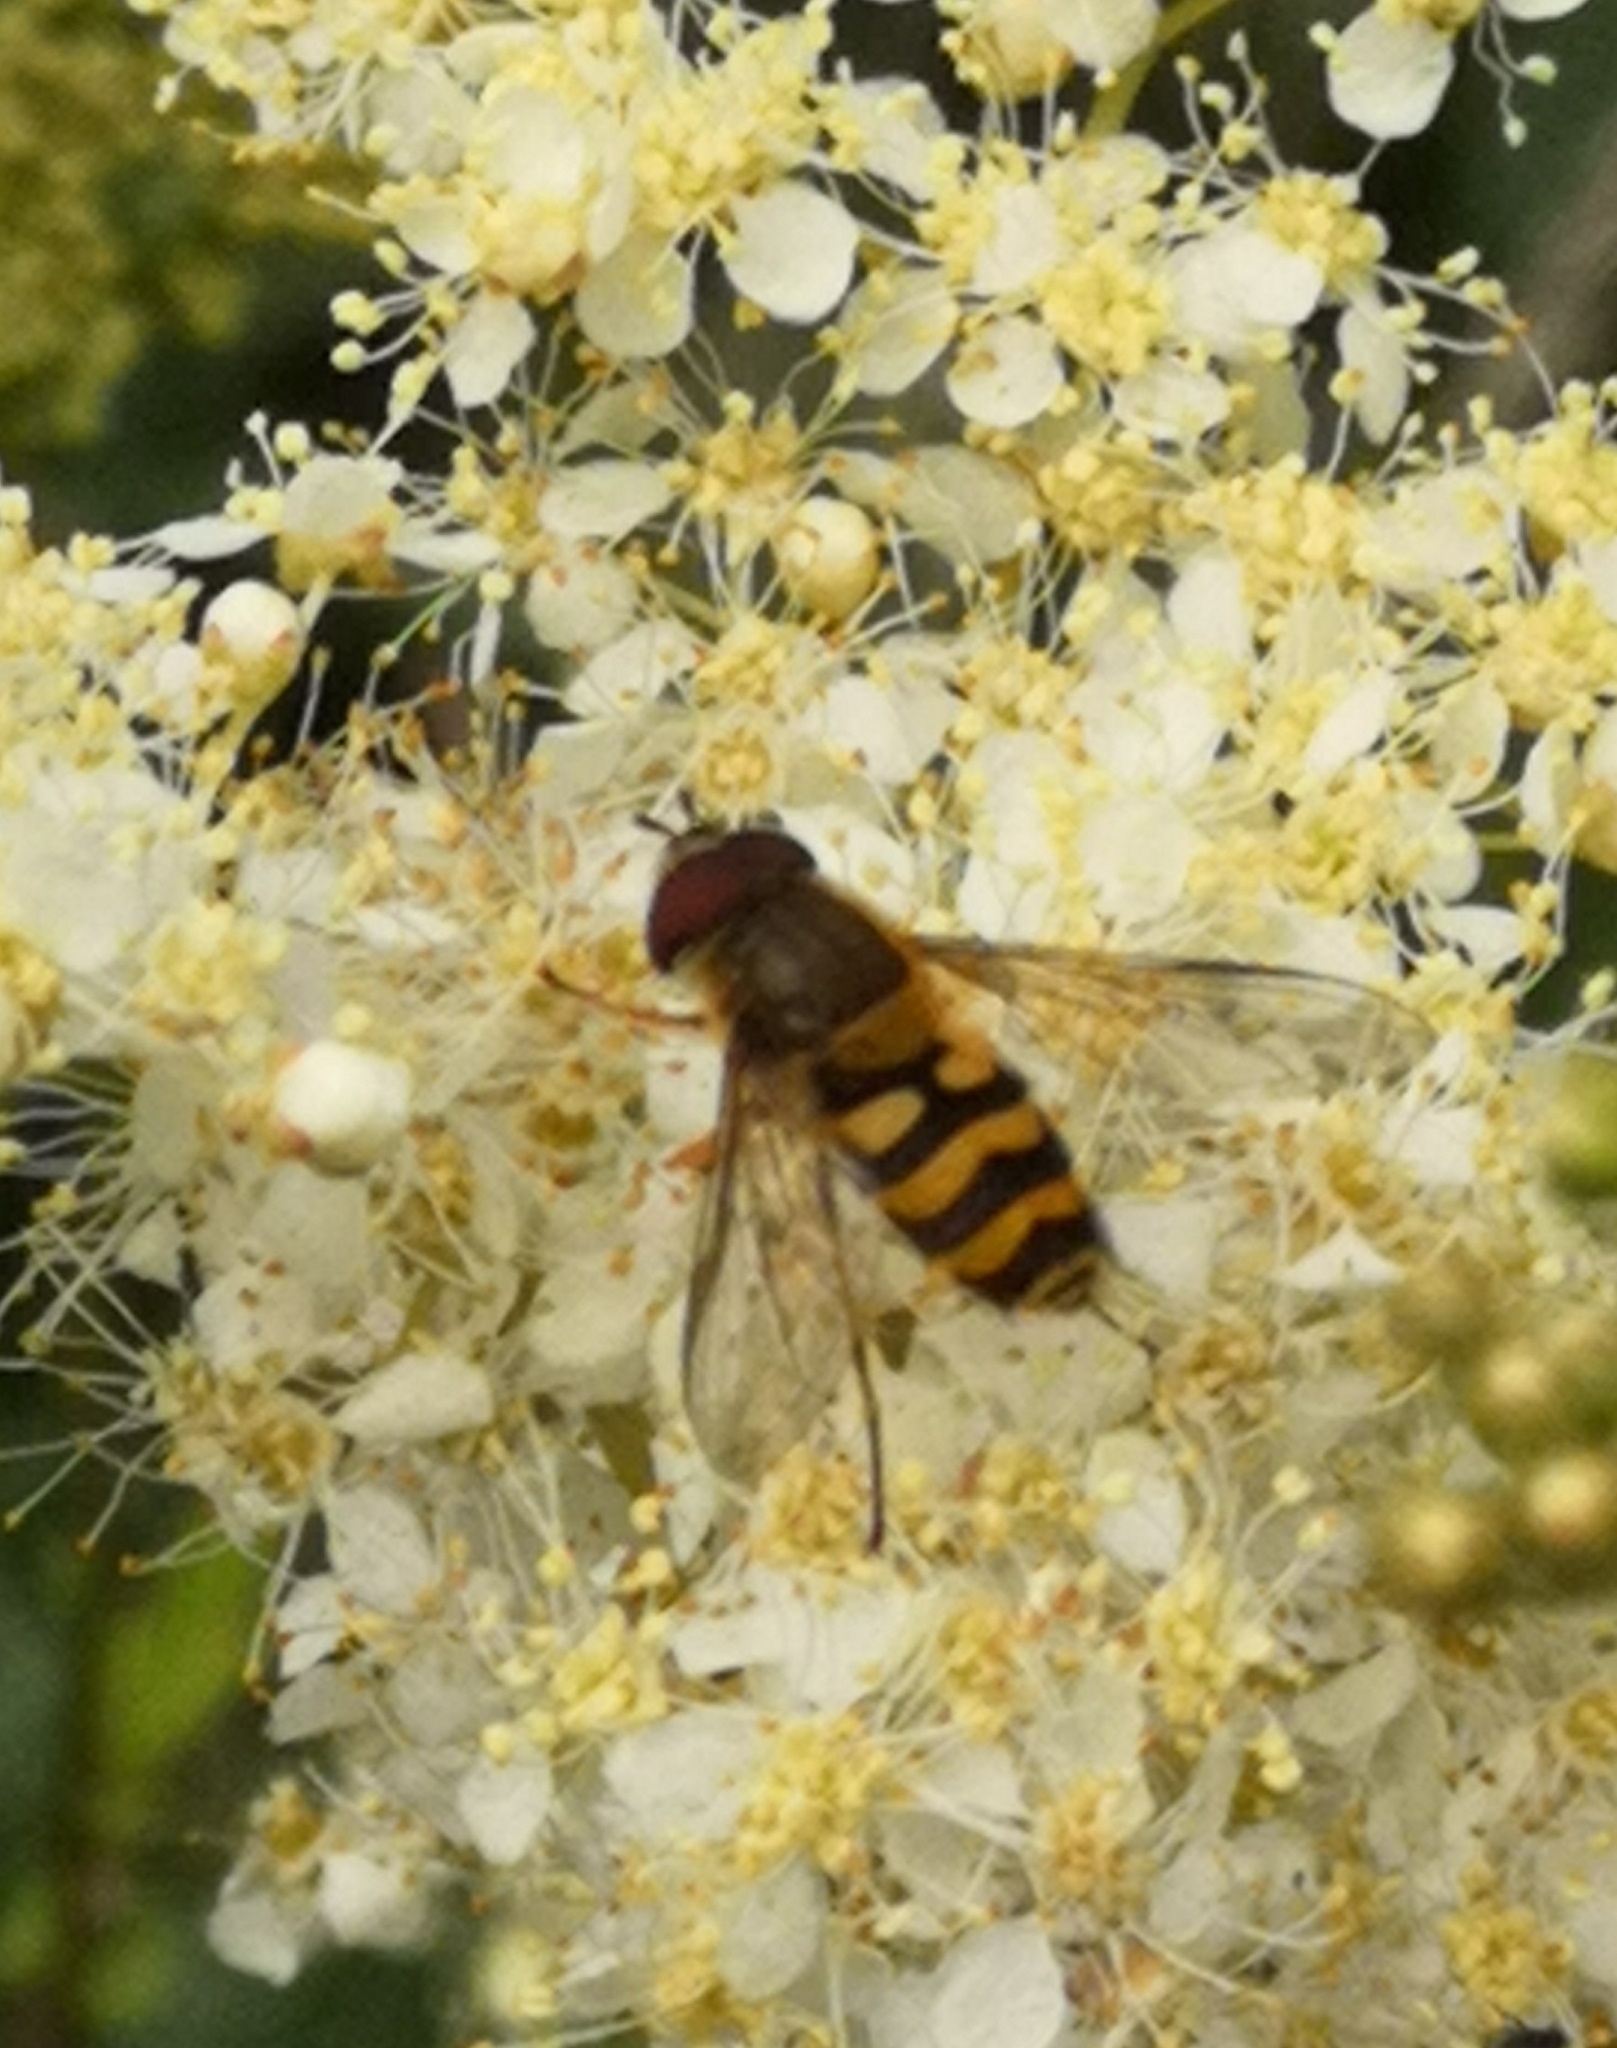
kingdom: Animalia
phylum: Arthropoda
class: Insecta
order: Diptera
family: Syrphidae
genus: Syrphus
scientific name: Syrphus
